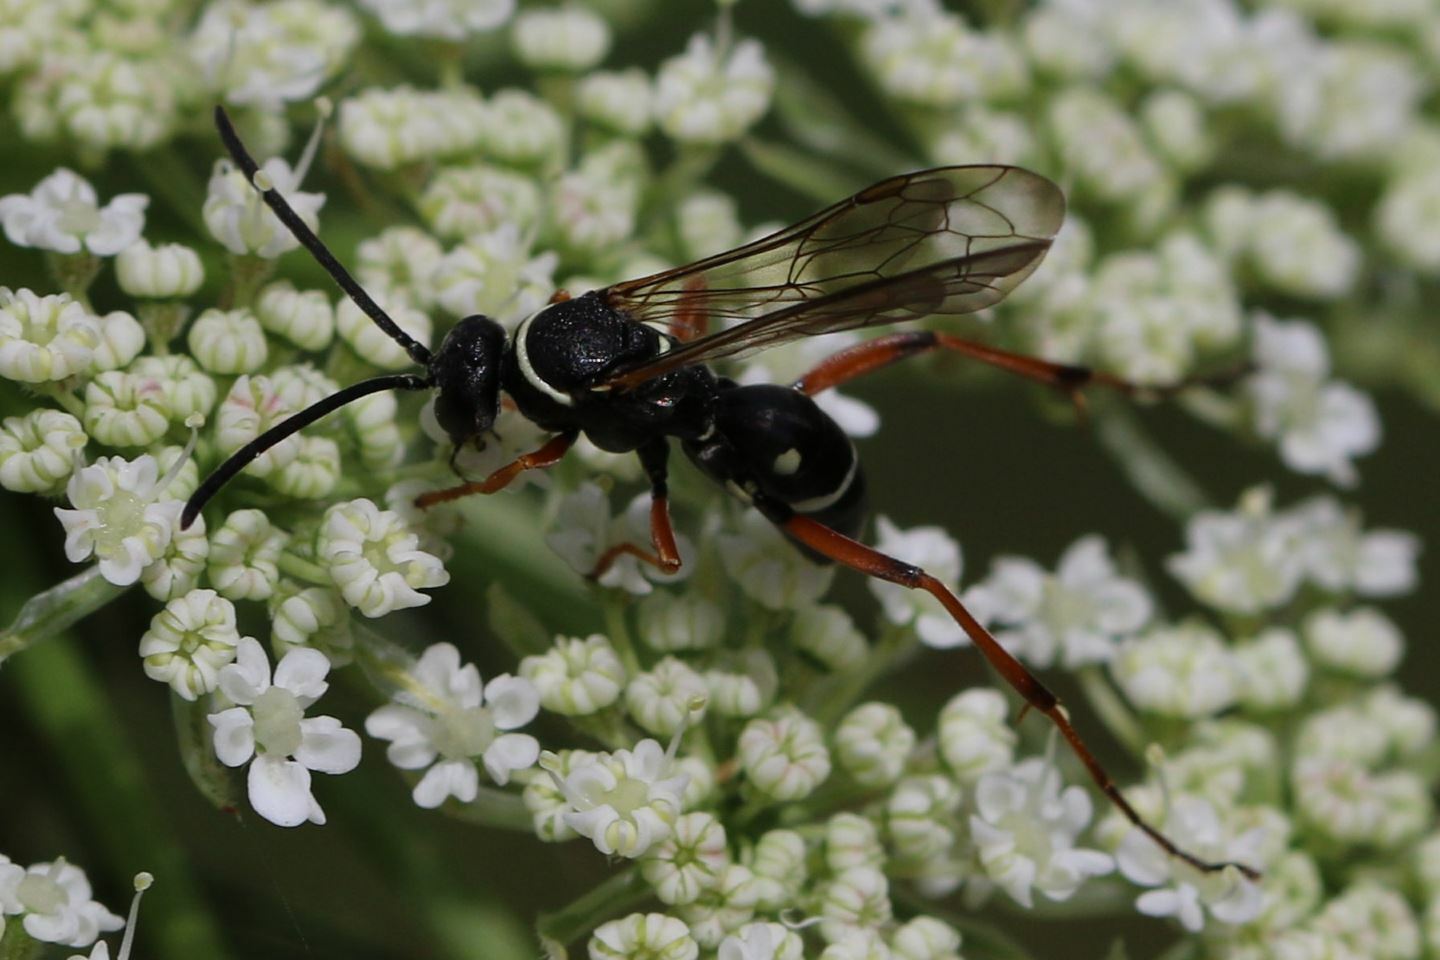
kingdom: Animalia
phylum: Arthropoda
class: Insecta
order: Hymenoptera
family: Pompilidae
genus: Ceropales
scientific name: Ceropales maculata
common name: Spider wasp
